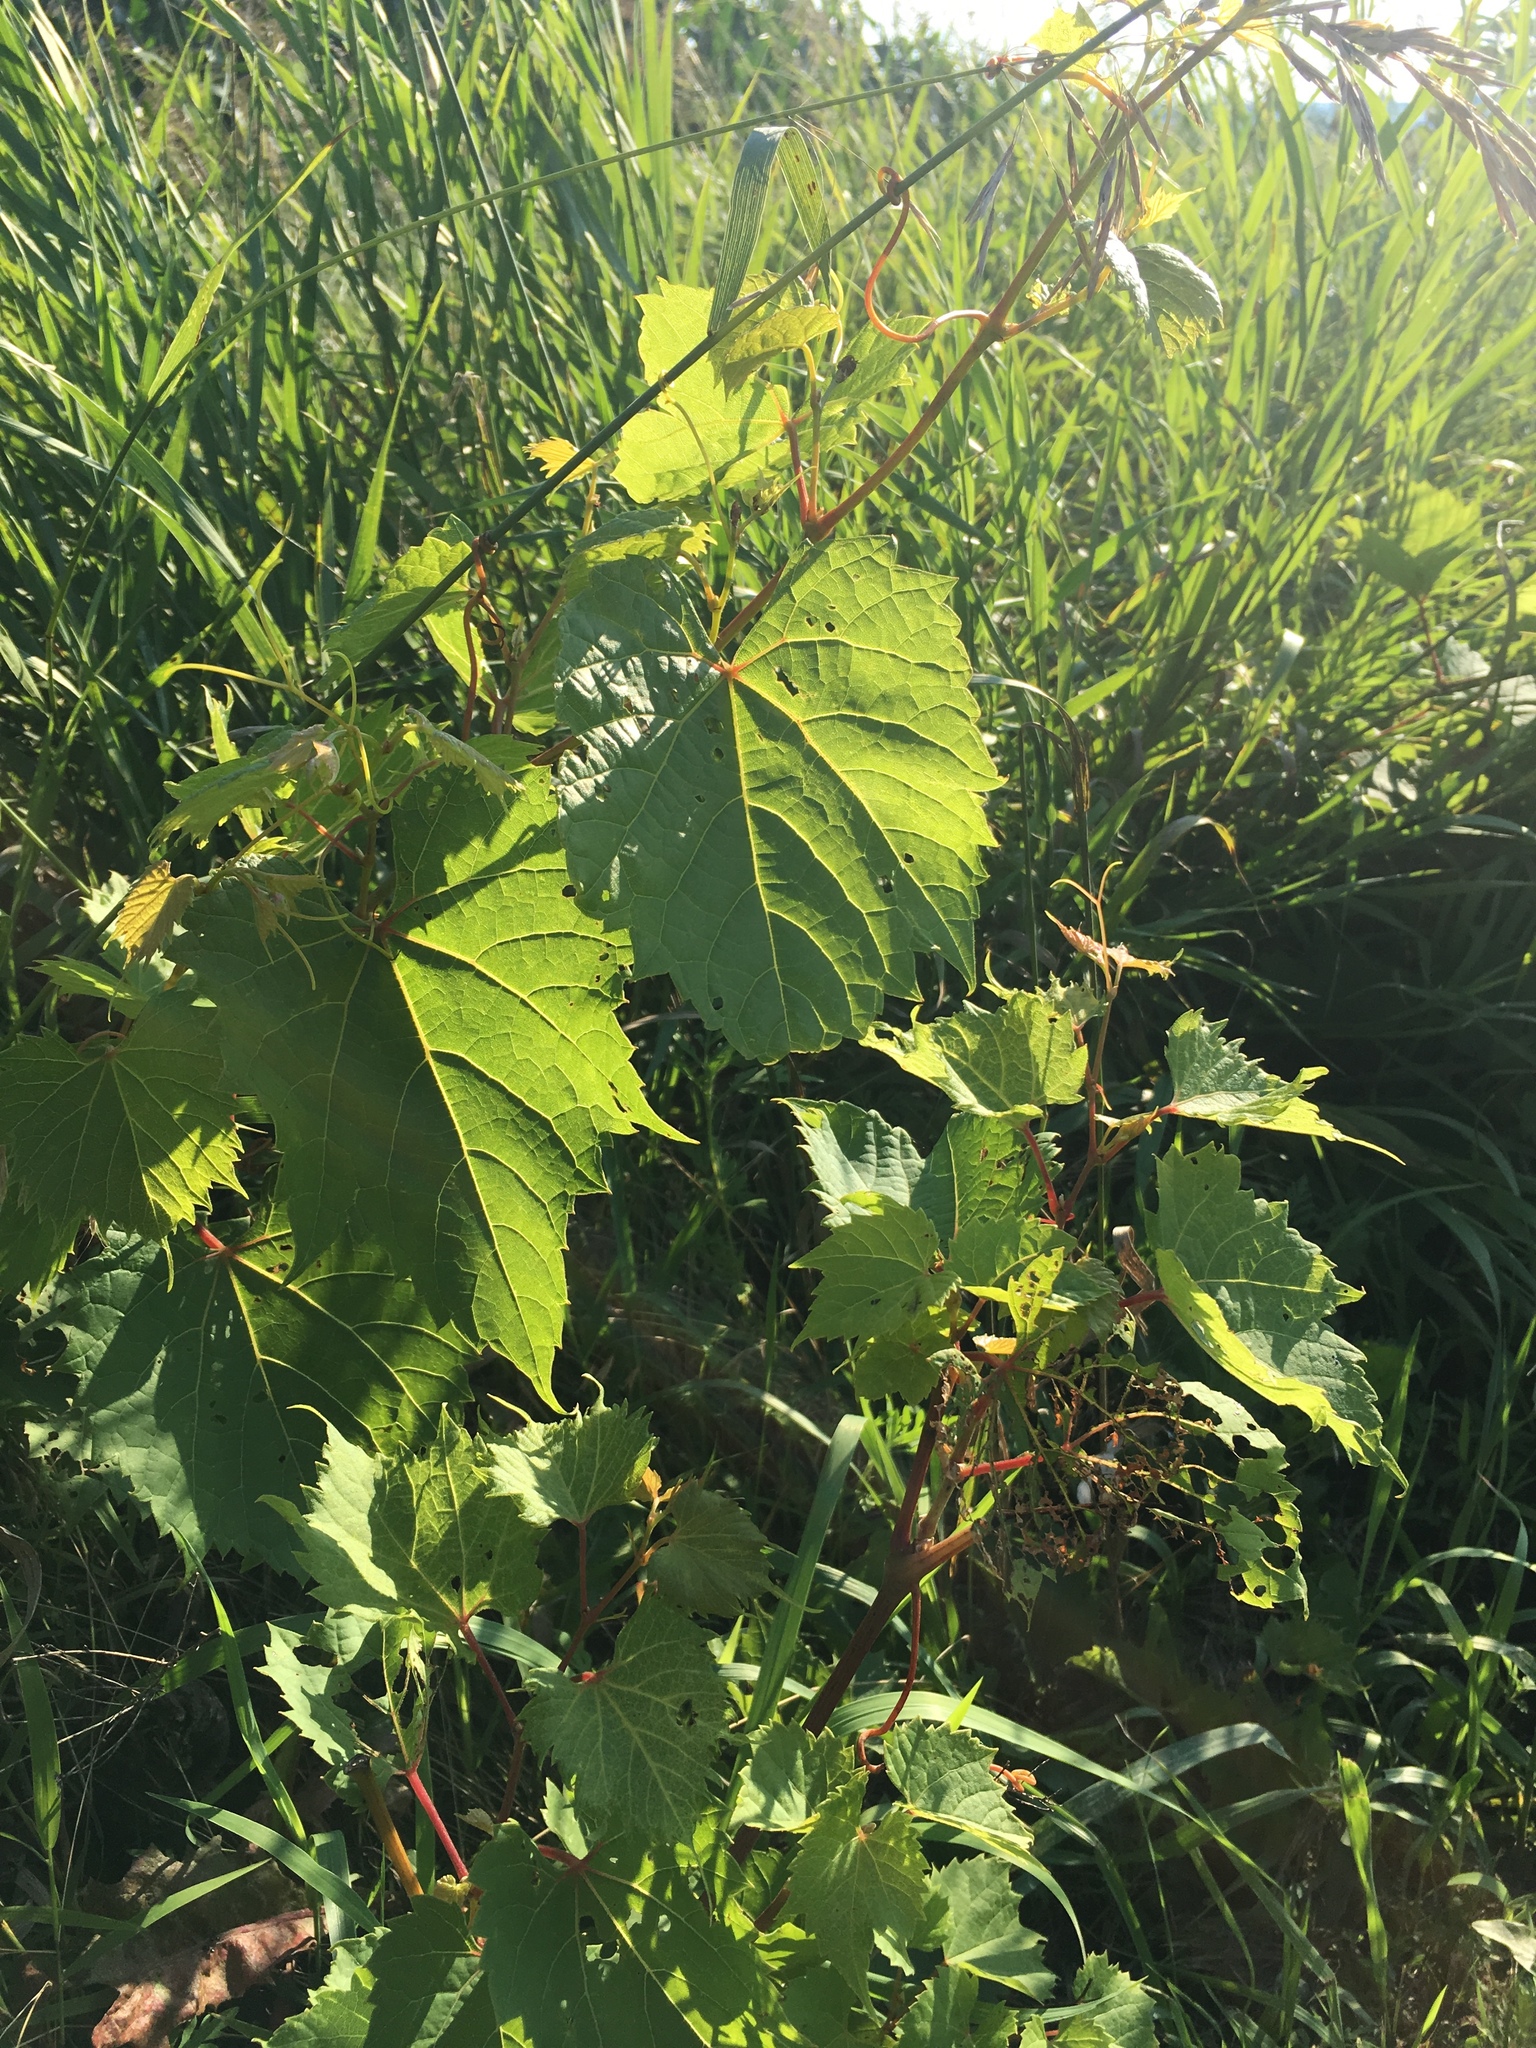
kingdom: Plantae
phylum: Tracheophyta
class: Magnoliopsida
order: Vitales
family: Vitaceae
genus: Vitis
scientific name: Vitis riparia
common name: Frost grape
